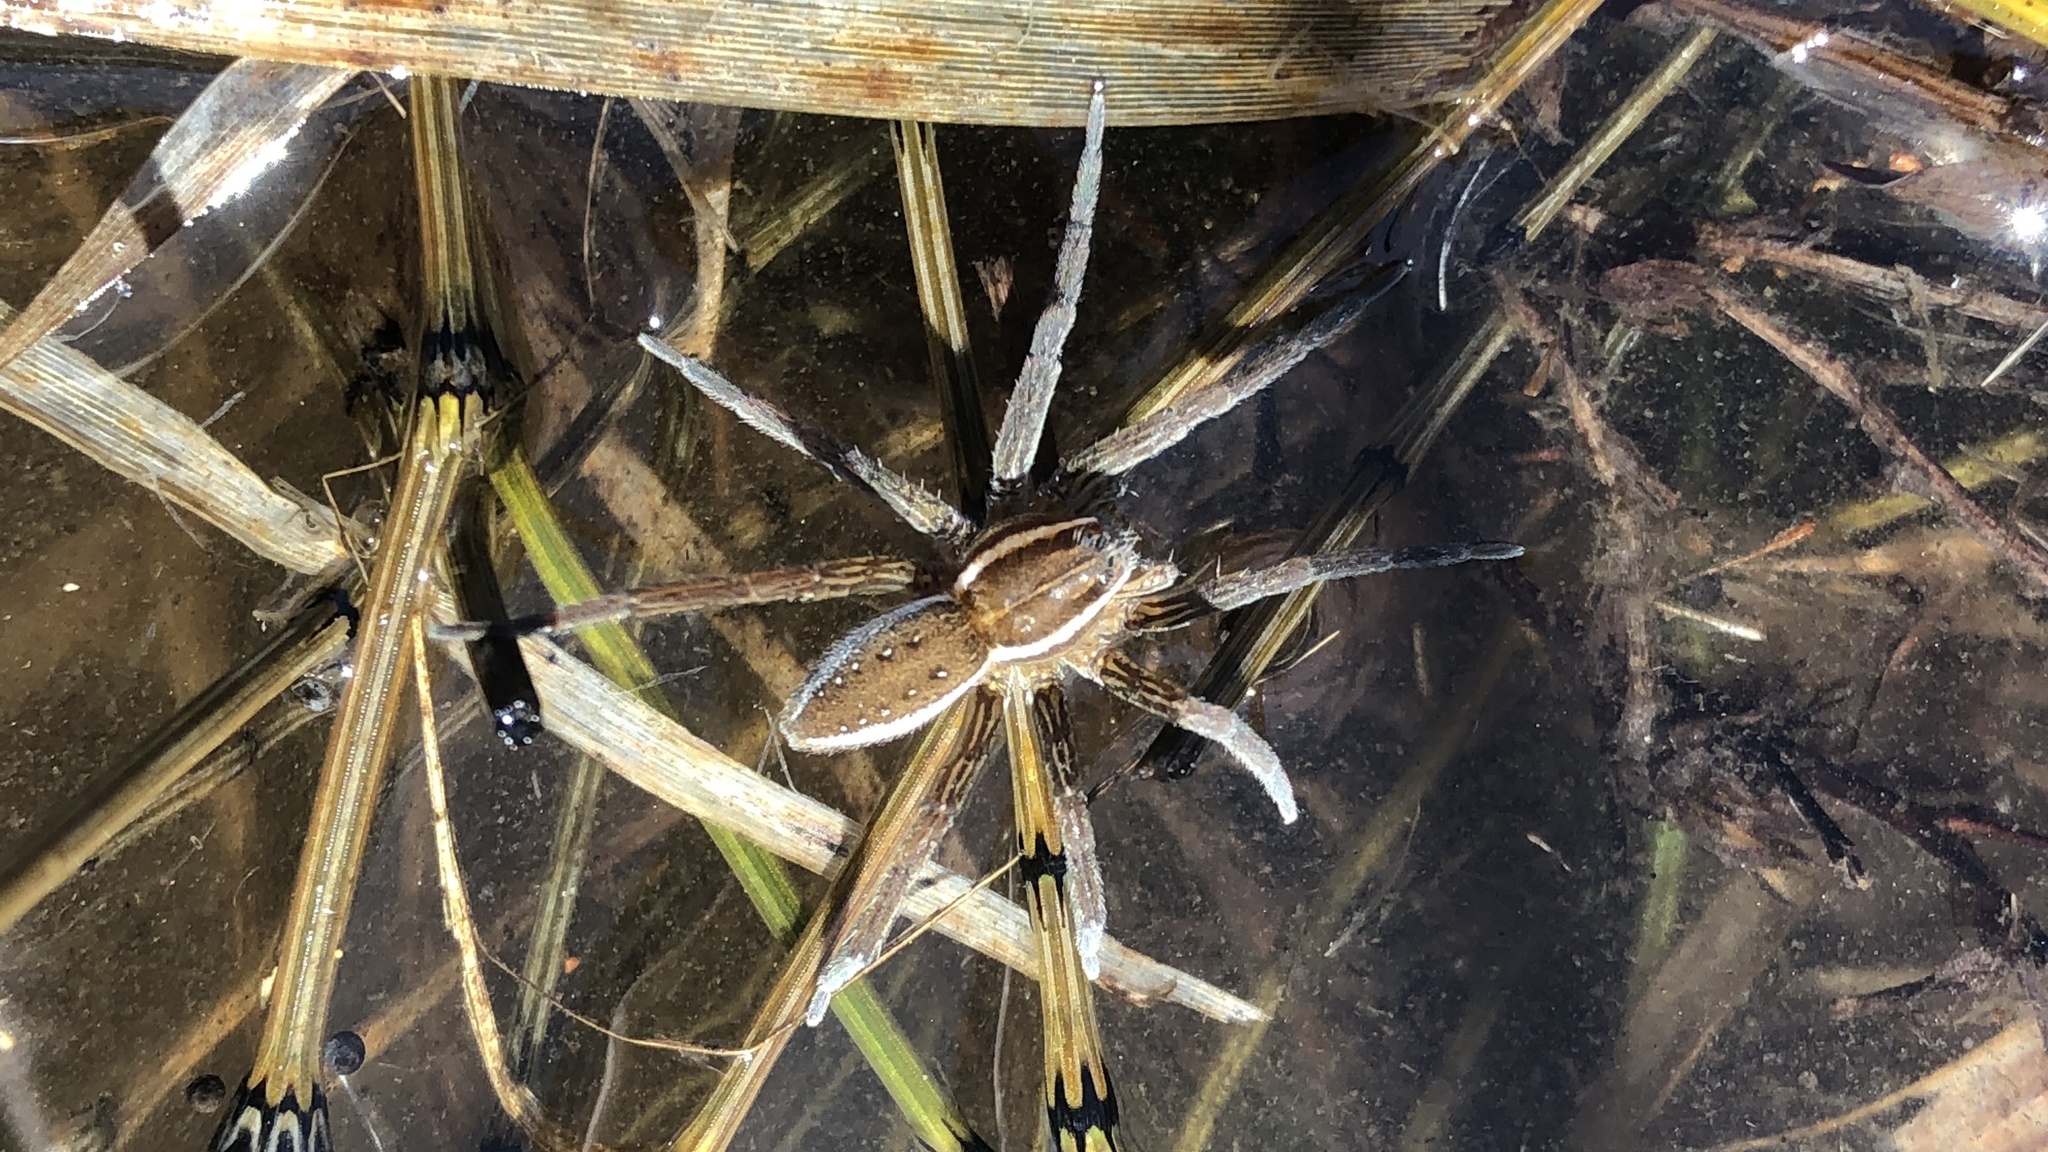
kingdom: Animalia
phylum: Arthropoda
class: Arachnida
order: Araneae
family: Pisauridae
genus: Dolomedes
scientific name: Dolomedes triton
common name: Six-spotted fishing spider
